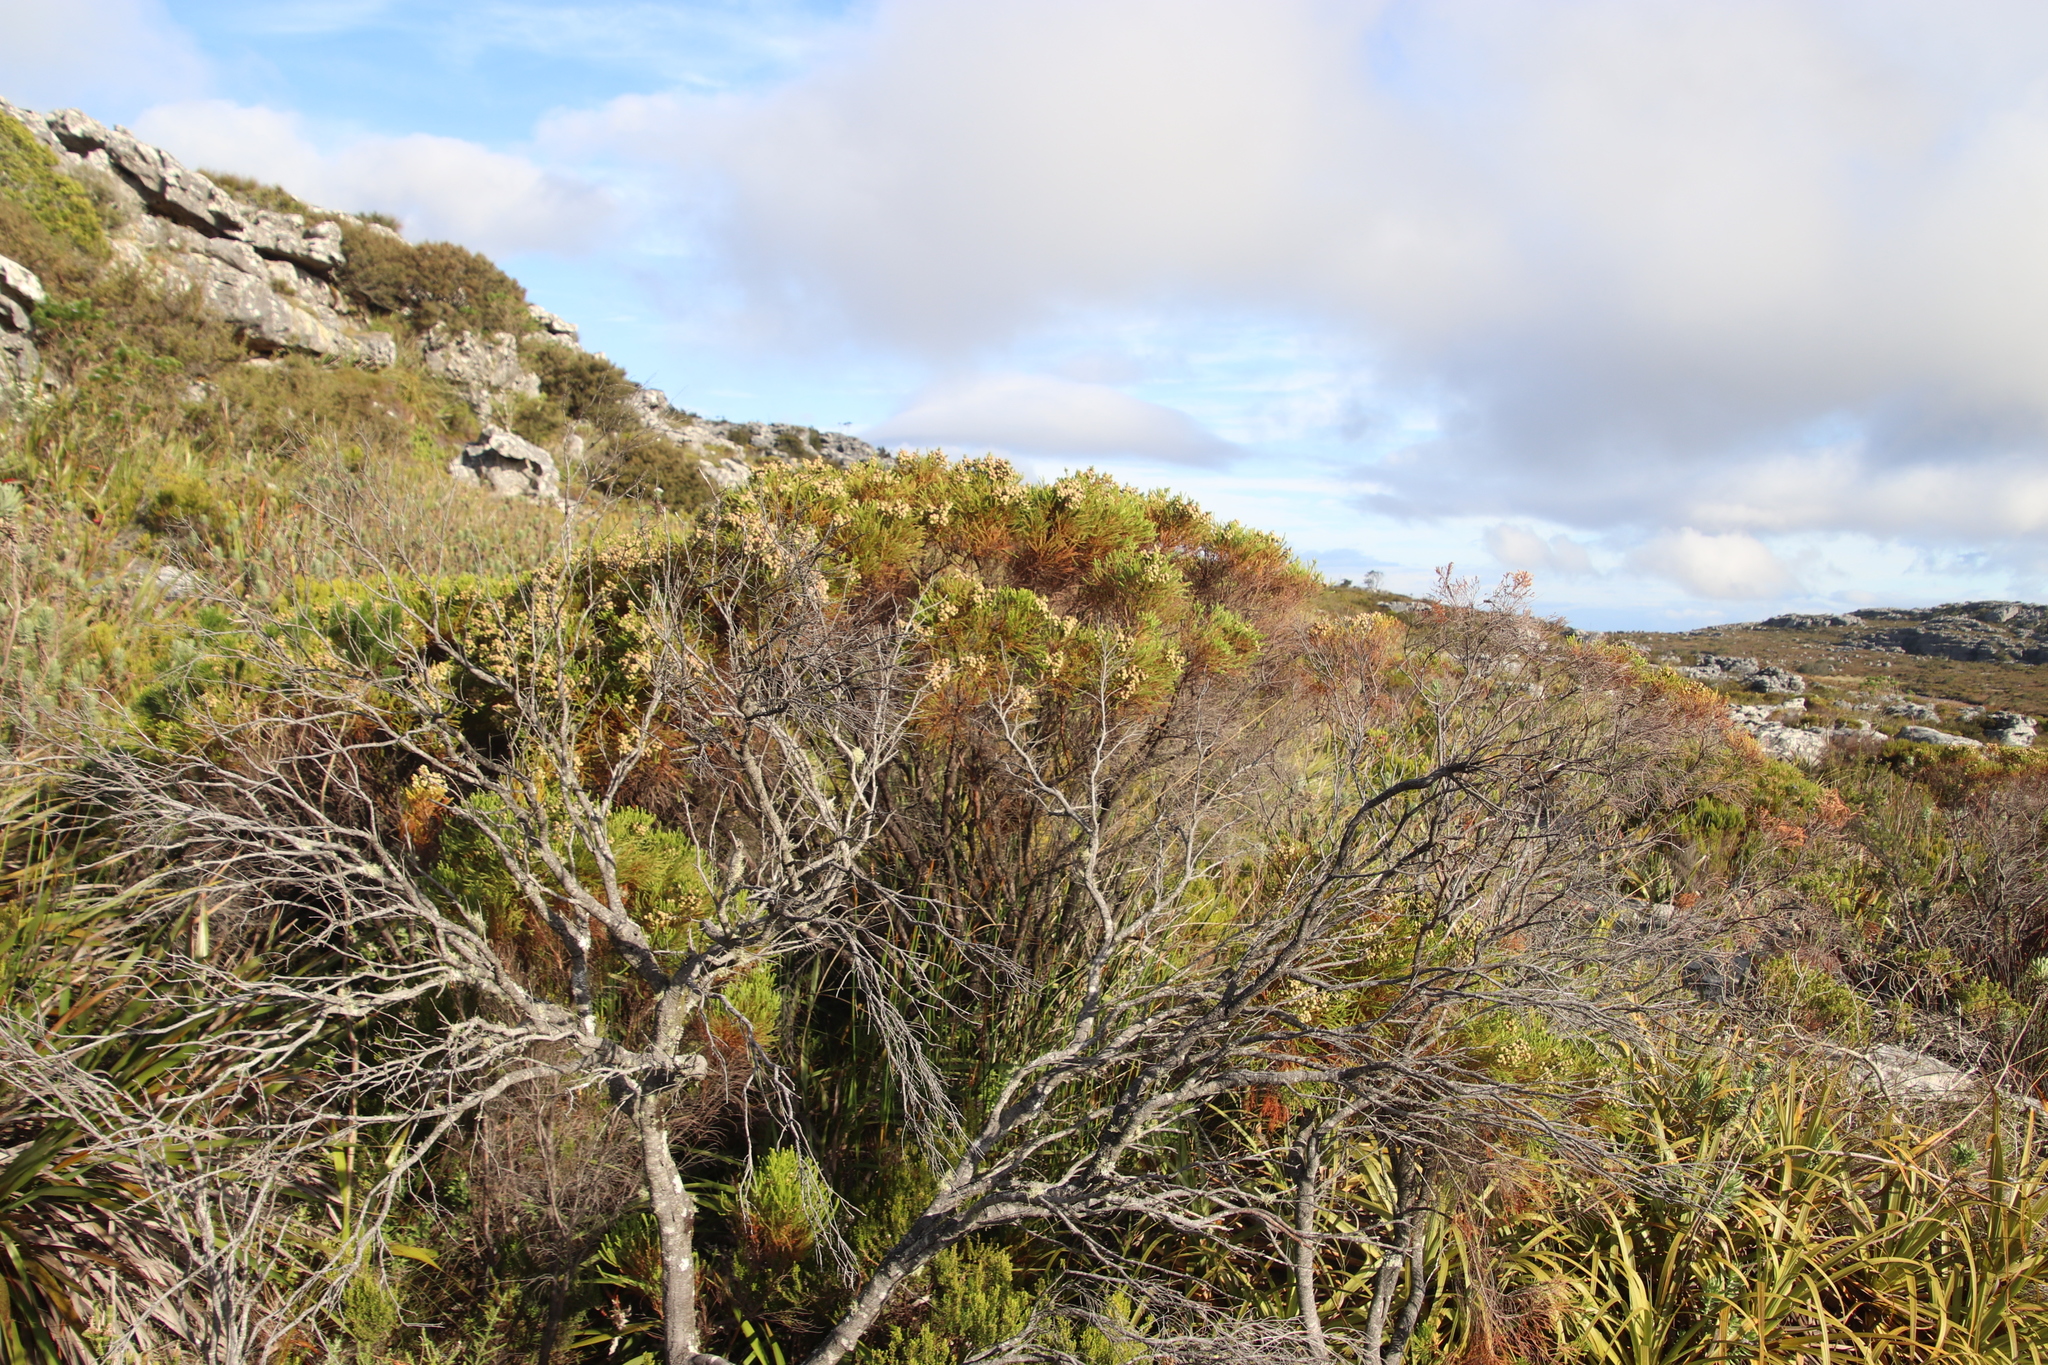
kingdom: Plantae
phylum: Tracheophyta
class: Magnoliopsida
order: Bruniales
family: Bruniaceae
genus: Berzelia
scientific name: Berzelia lanuginosa
